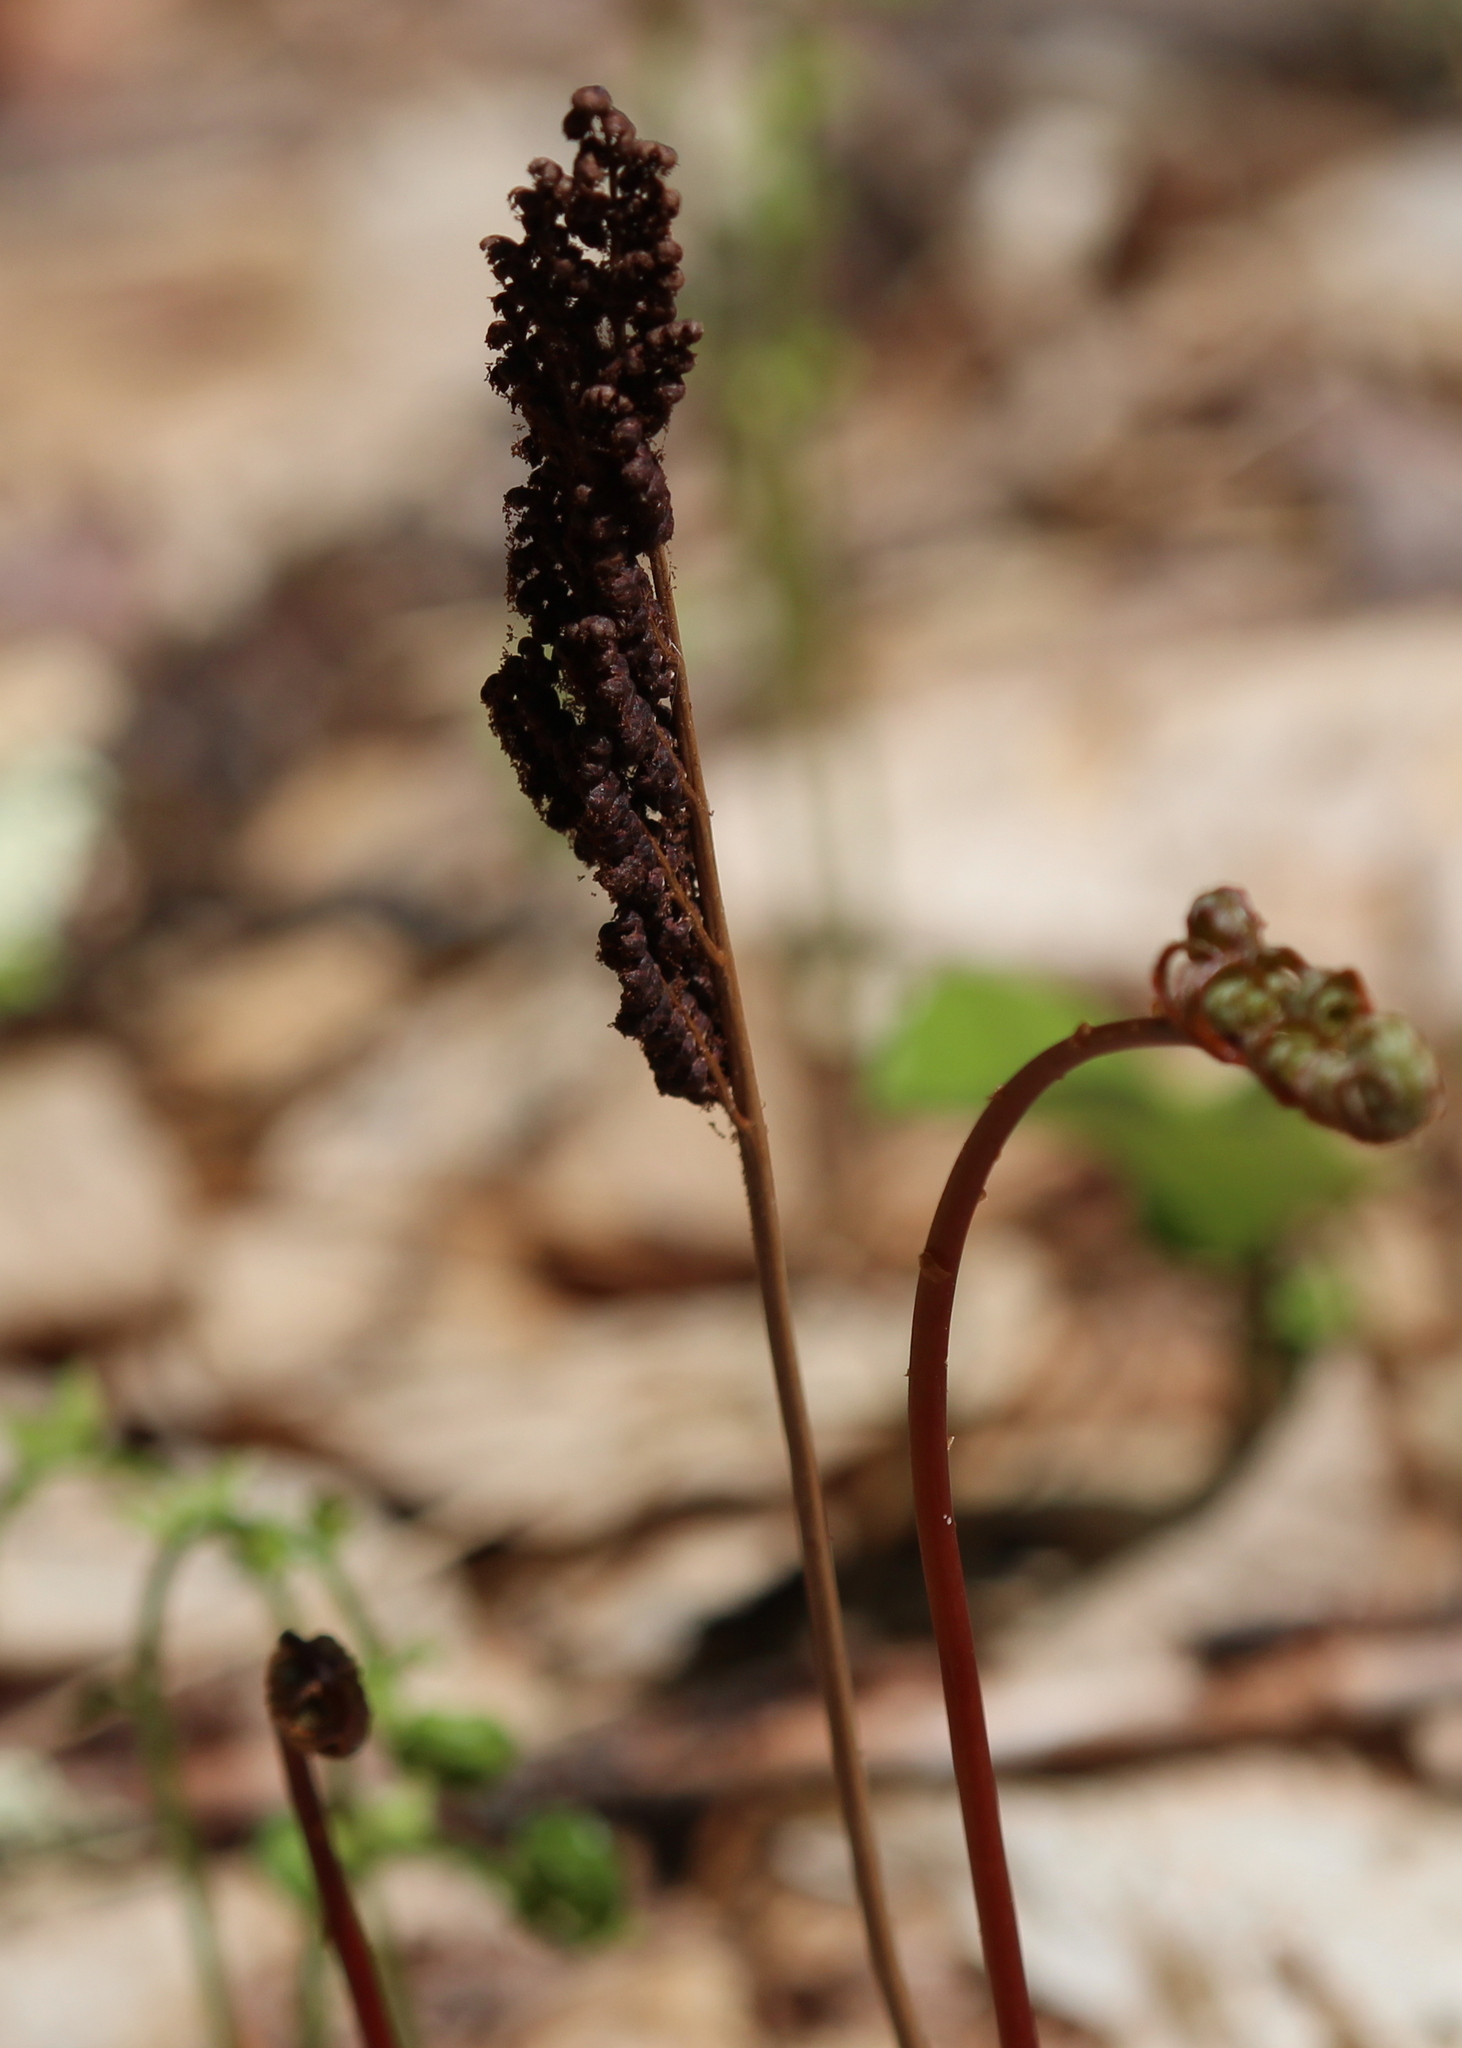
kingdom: Plantae
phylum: Tracheophyta
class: Polypodiopsida
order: Polypodiales
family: Onocleaceae
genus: Onoclea
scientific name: Onoclea sensibilis
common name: Sensitive fern
